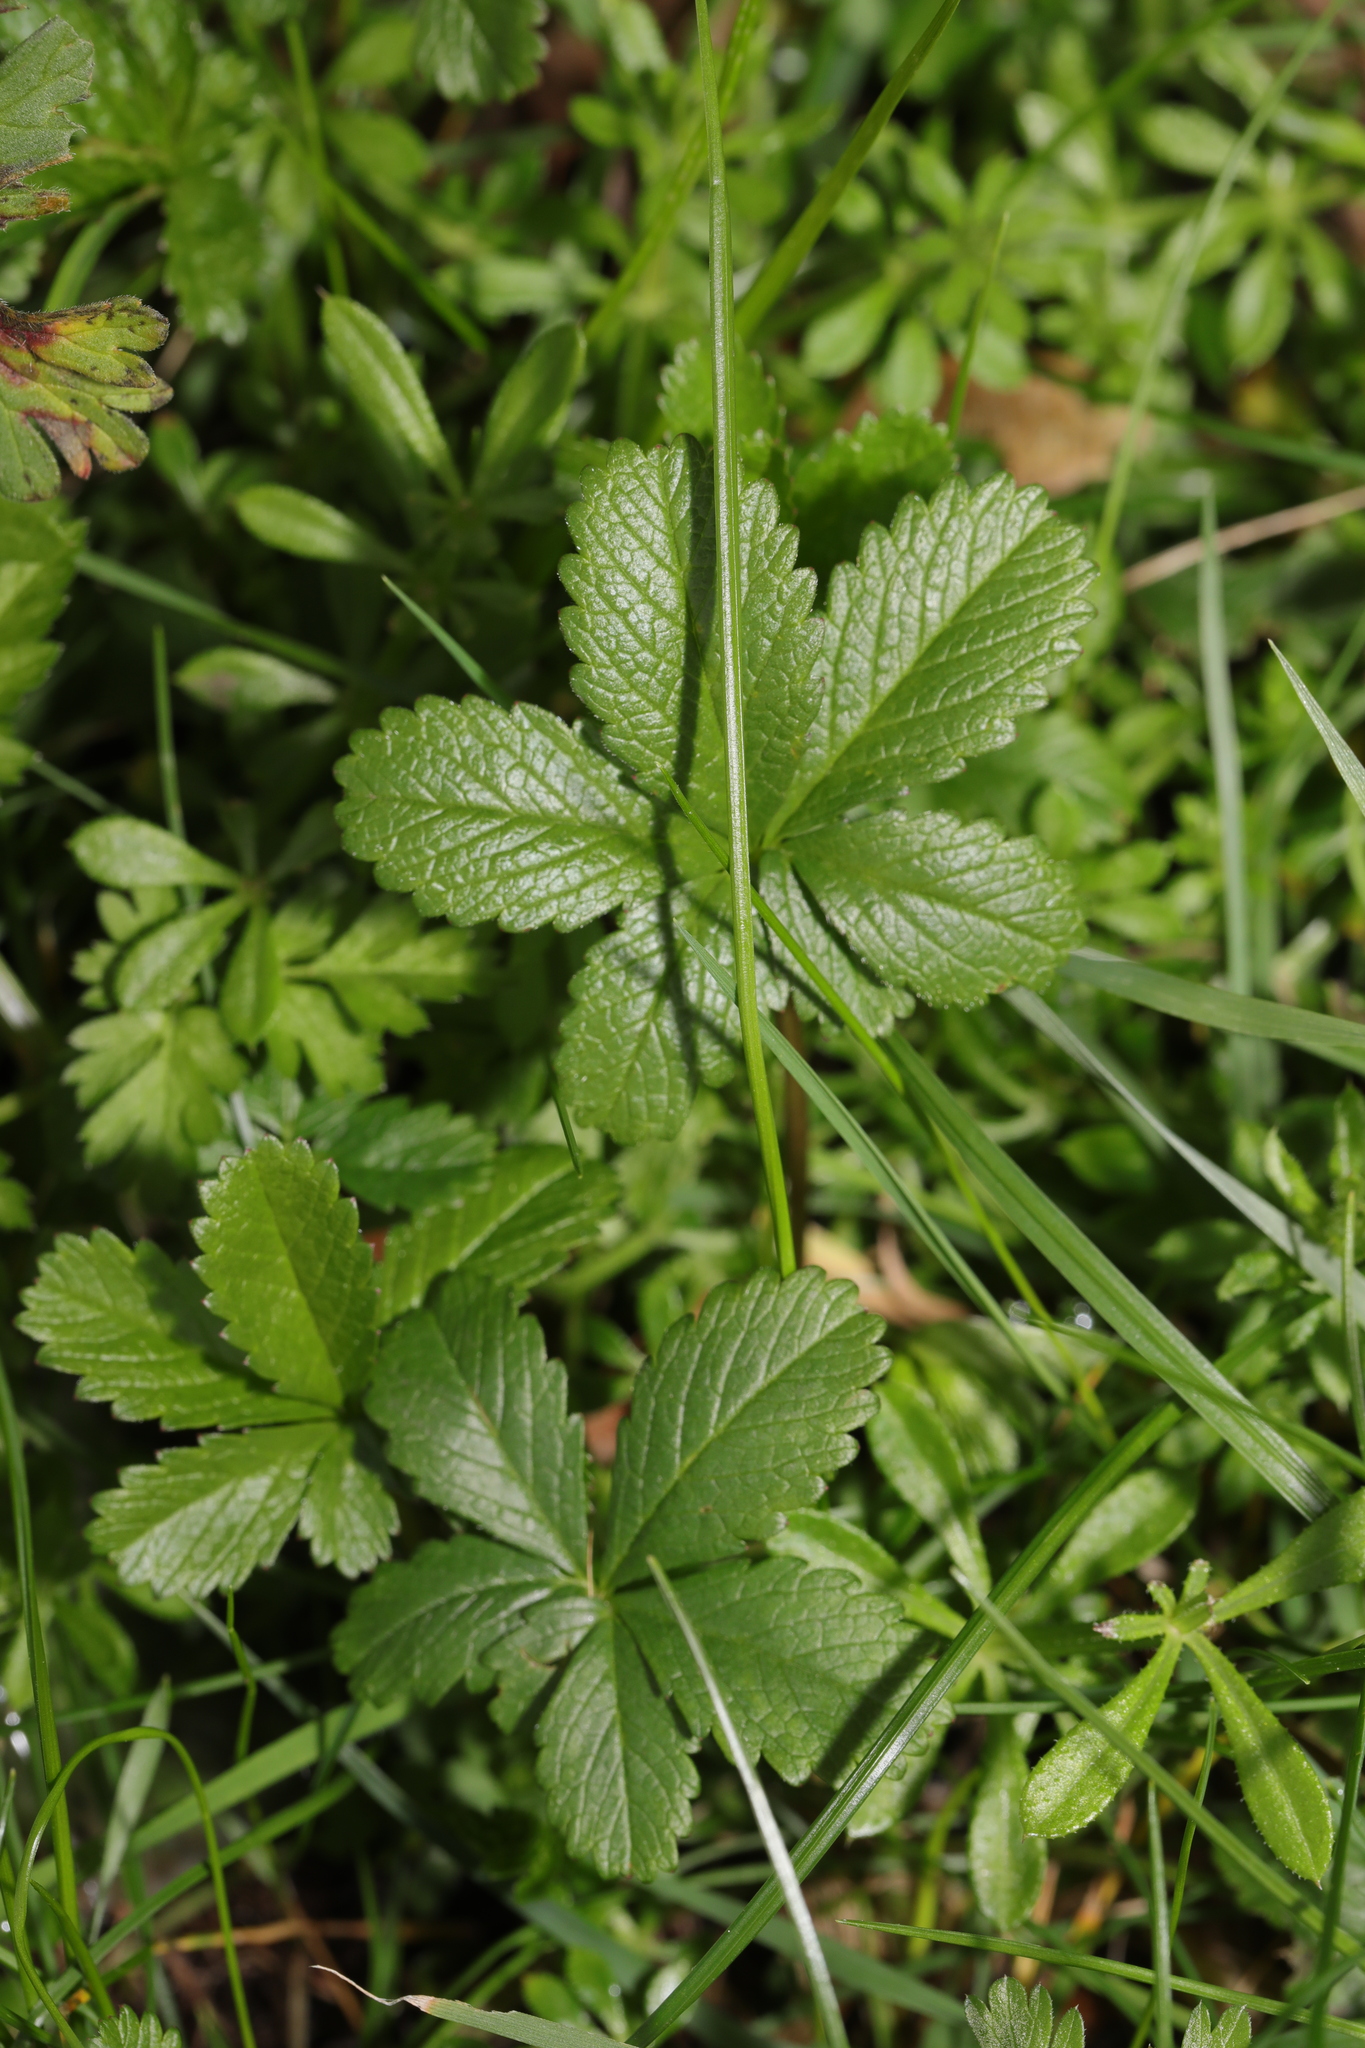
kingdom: Plantae
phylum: Tracheophyta
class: Magnoliopsida
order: Rosales
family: Rosaceae
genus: Potentilla
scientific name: Potentilla reptans
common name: Creeping cinquefoil
